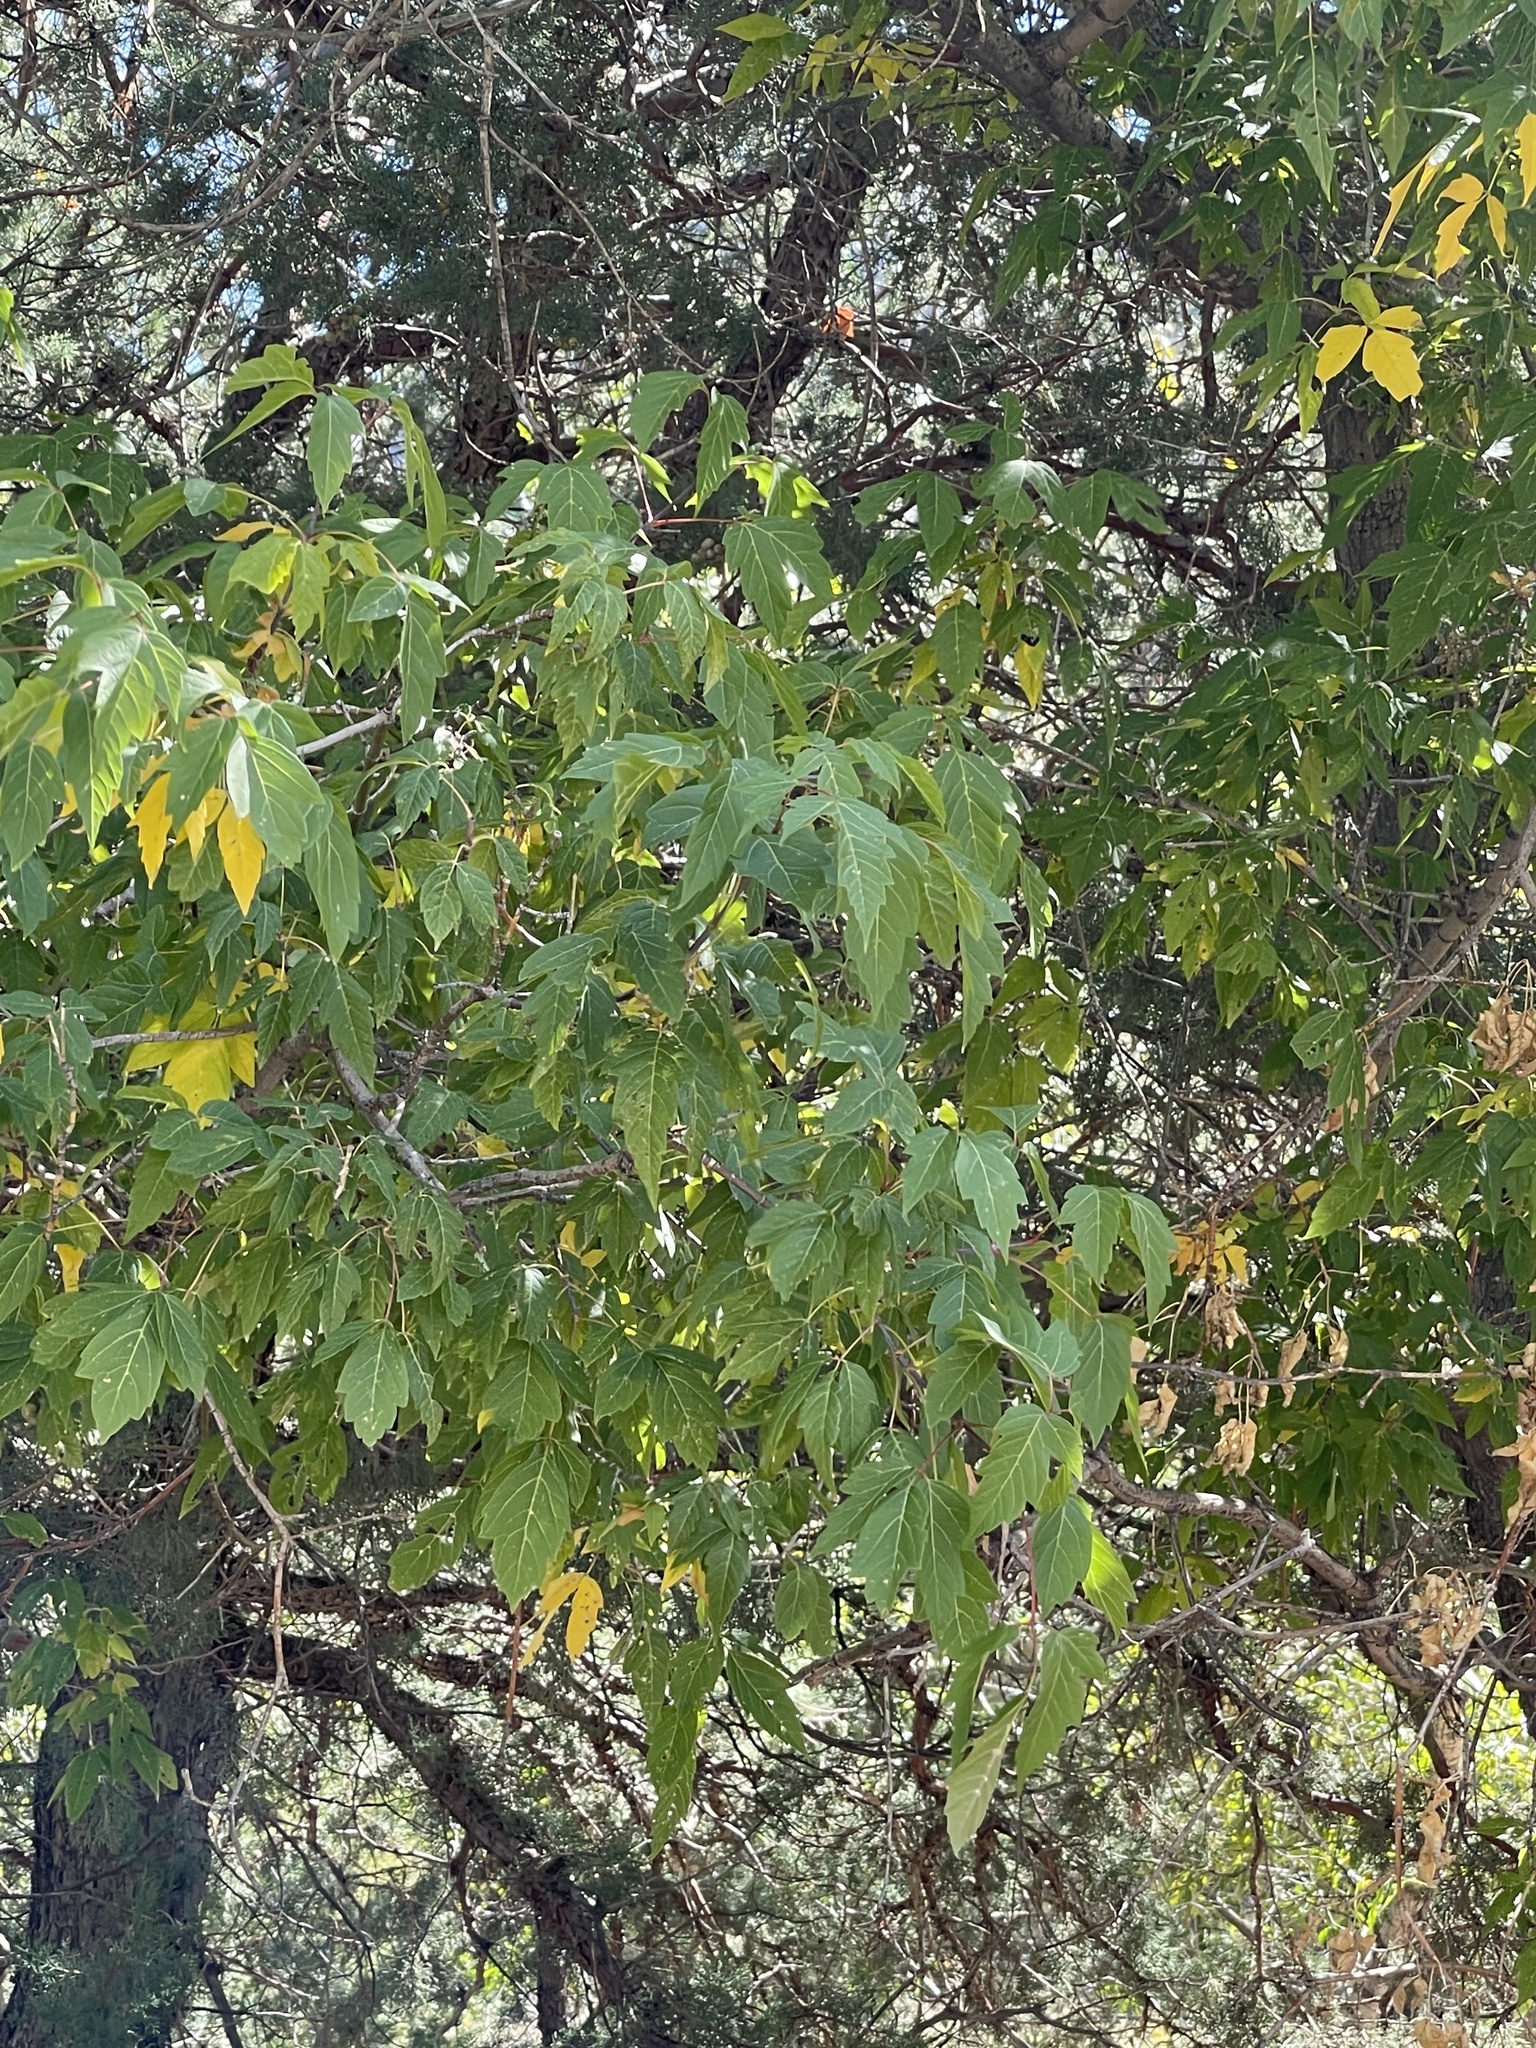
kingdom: Plantae
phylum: Tracheophyta
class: Magnoliopsida
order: Sapindales
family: Sapindaceae
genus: Acer
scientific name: Acer negundo
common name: Ashleaf maple
